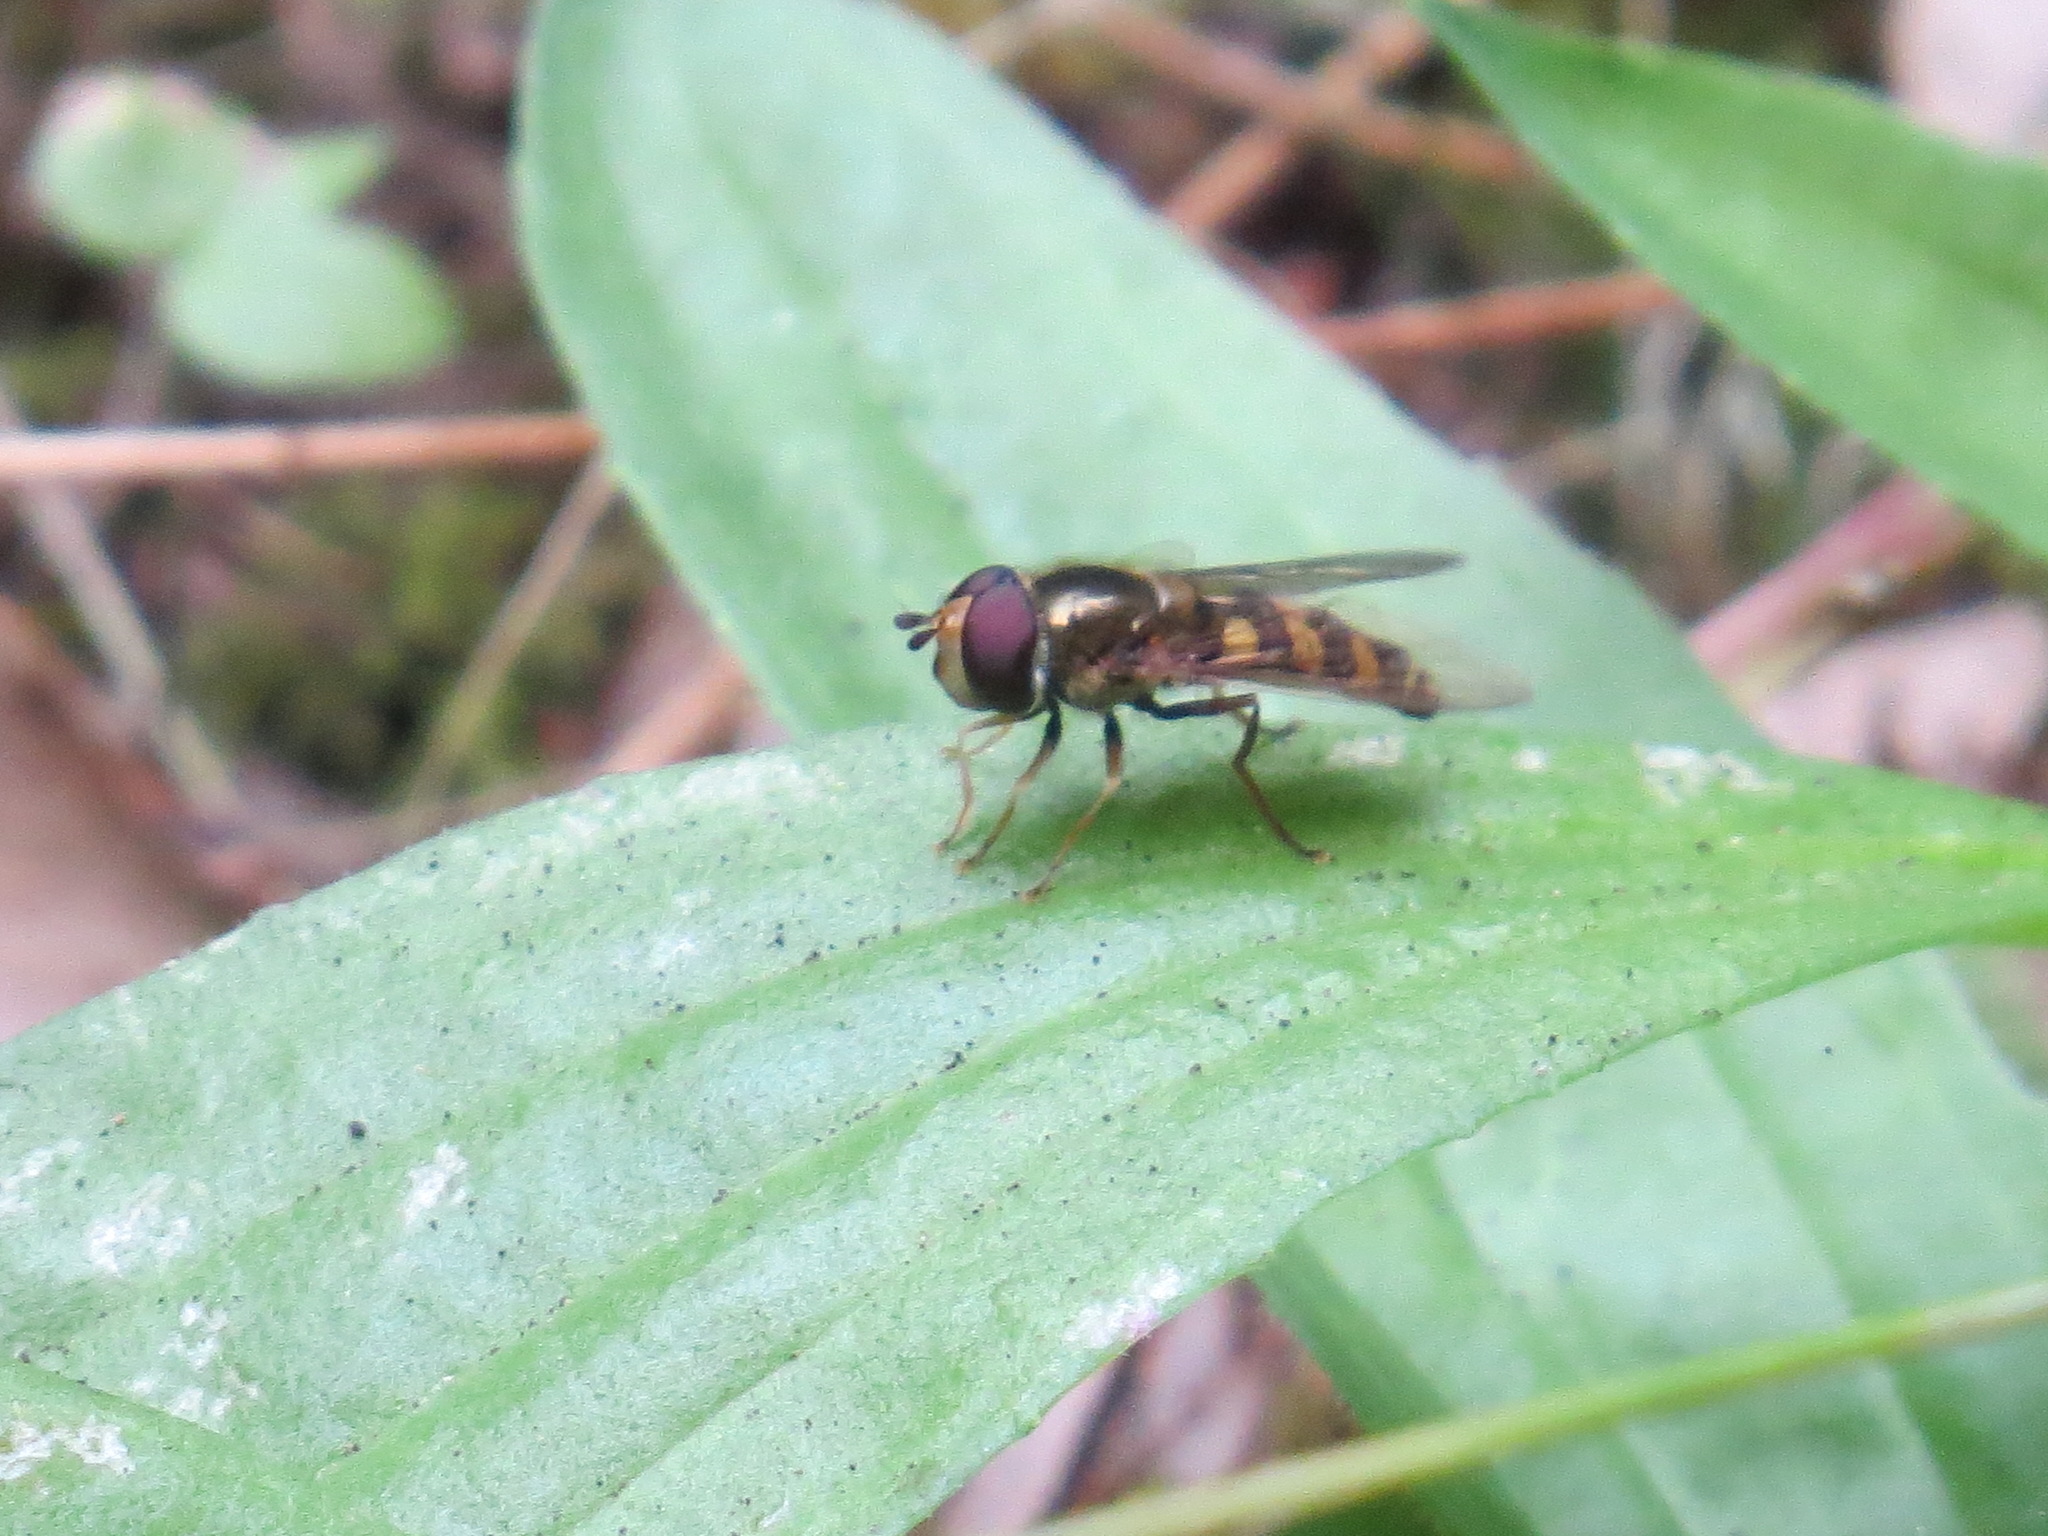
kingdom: Animalia
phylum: Arthropoda
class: Insecta
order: Diptera
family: Syrphidae
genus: Eupeodes
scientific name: Eupeodes fumipennis
